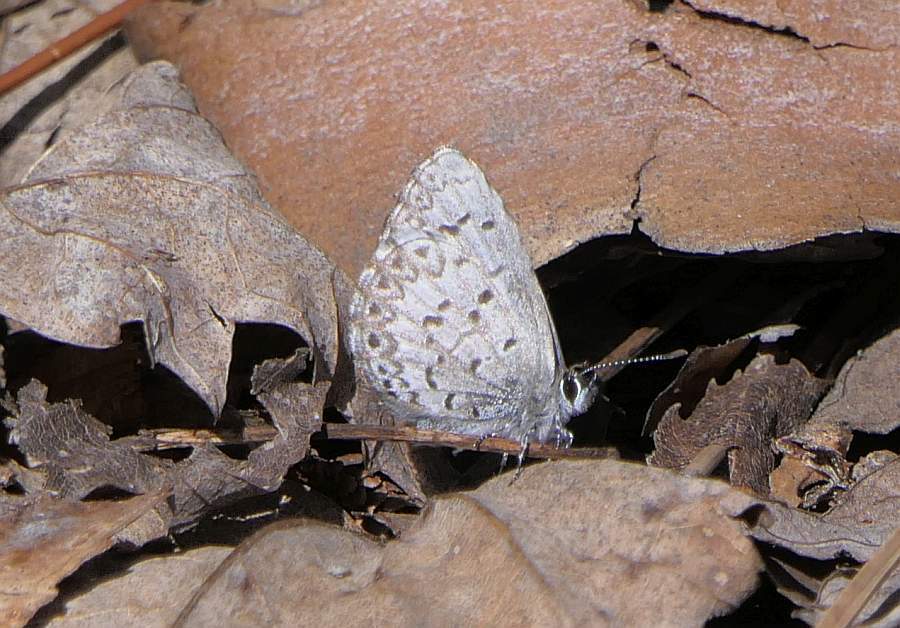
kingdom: Animalia
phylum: Arthropoda
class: Insecta
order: Lepidoptera
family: Lycaenidae
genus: Celastrina
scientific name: Celastrina lucia
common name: Lucia azure
